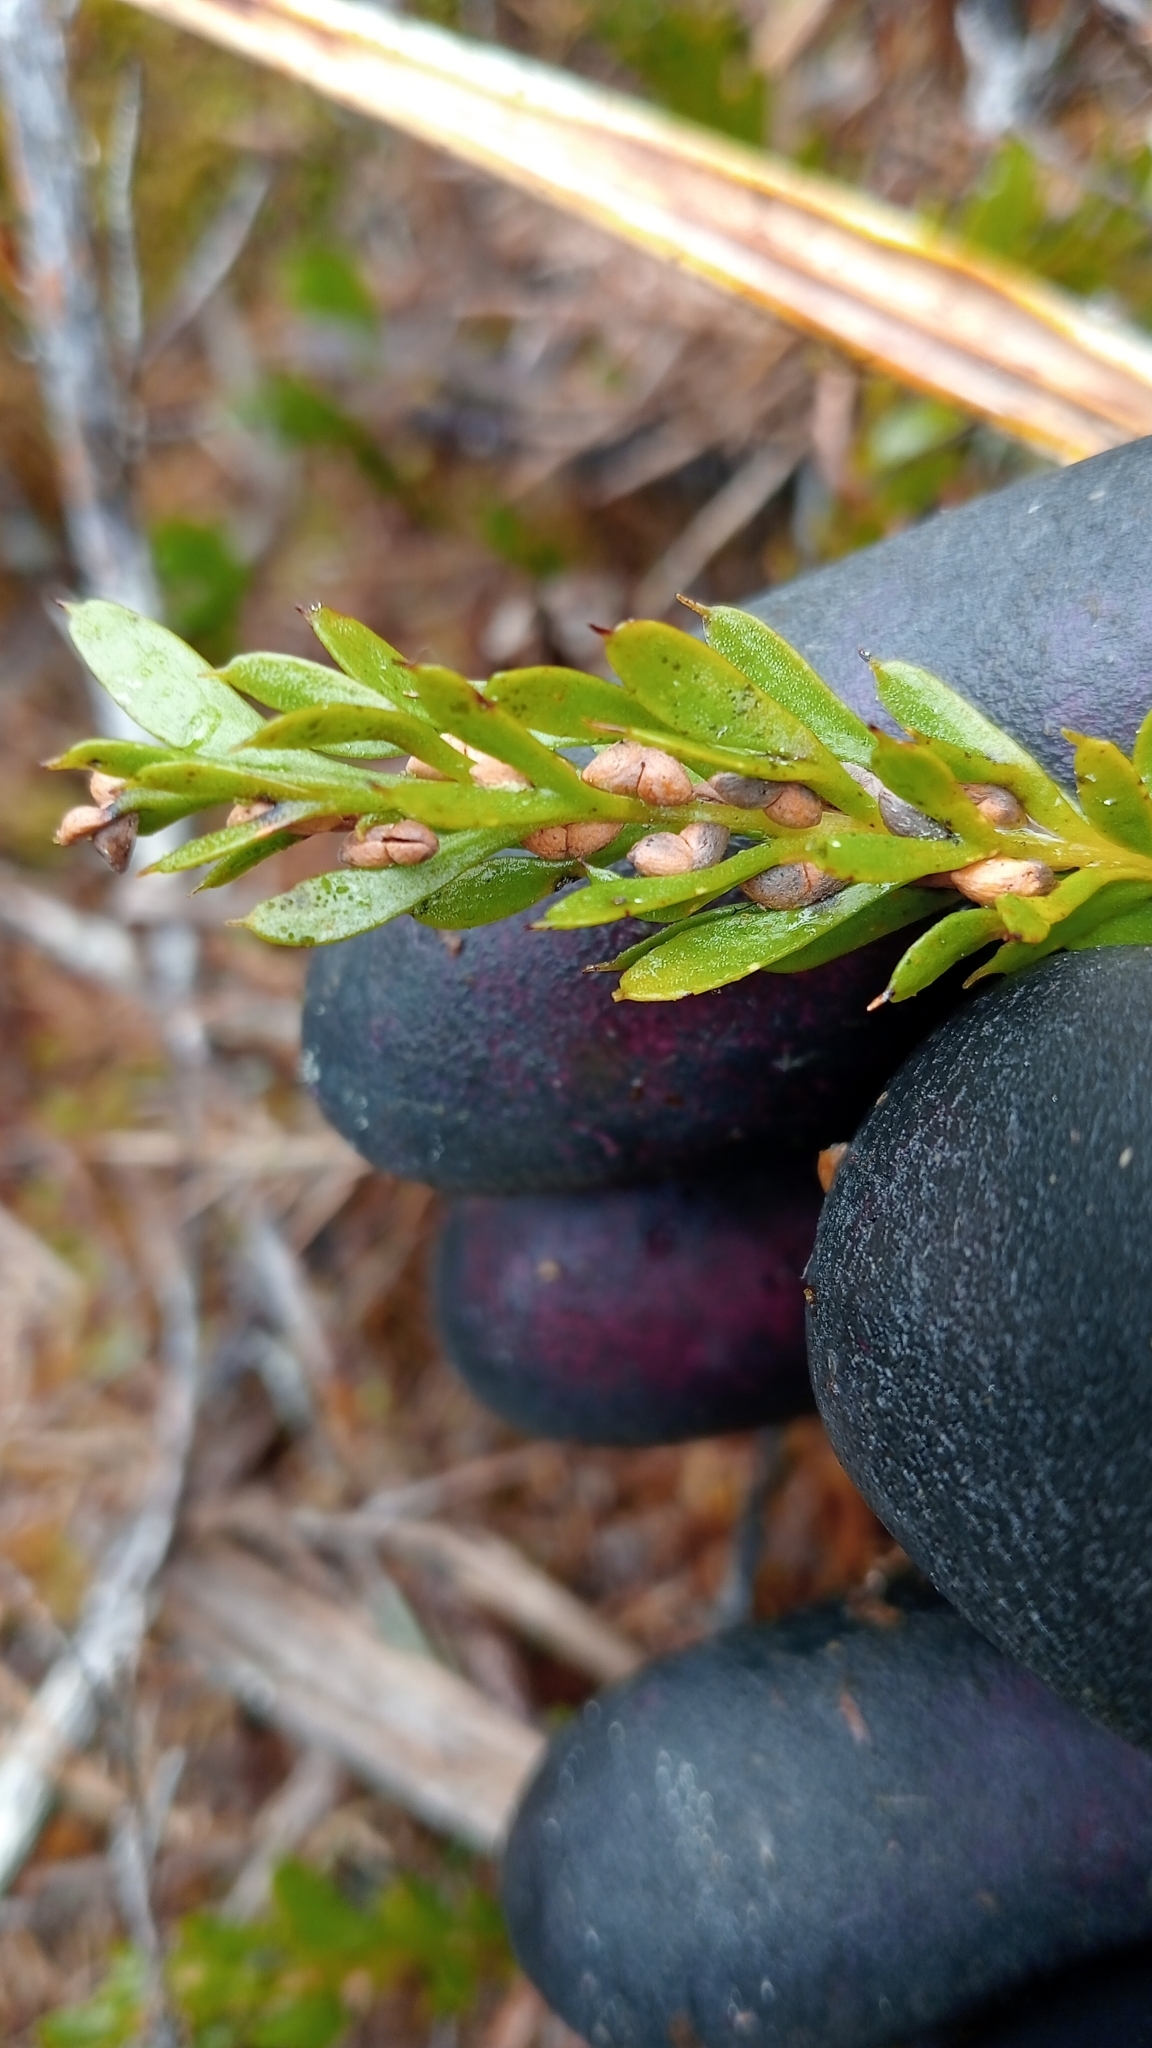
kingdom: Plantae
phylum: Tracheophyta
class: Polypodiopsida
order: Psilotales
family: Psilotaceae
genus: Tmesipteris
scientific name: Tmesipteris tannensis
